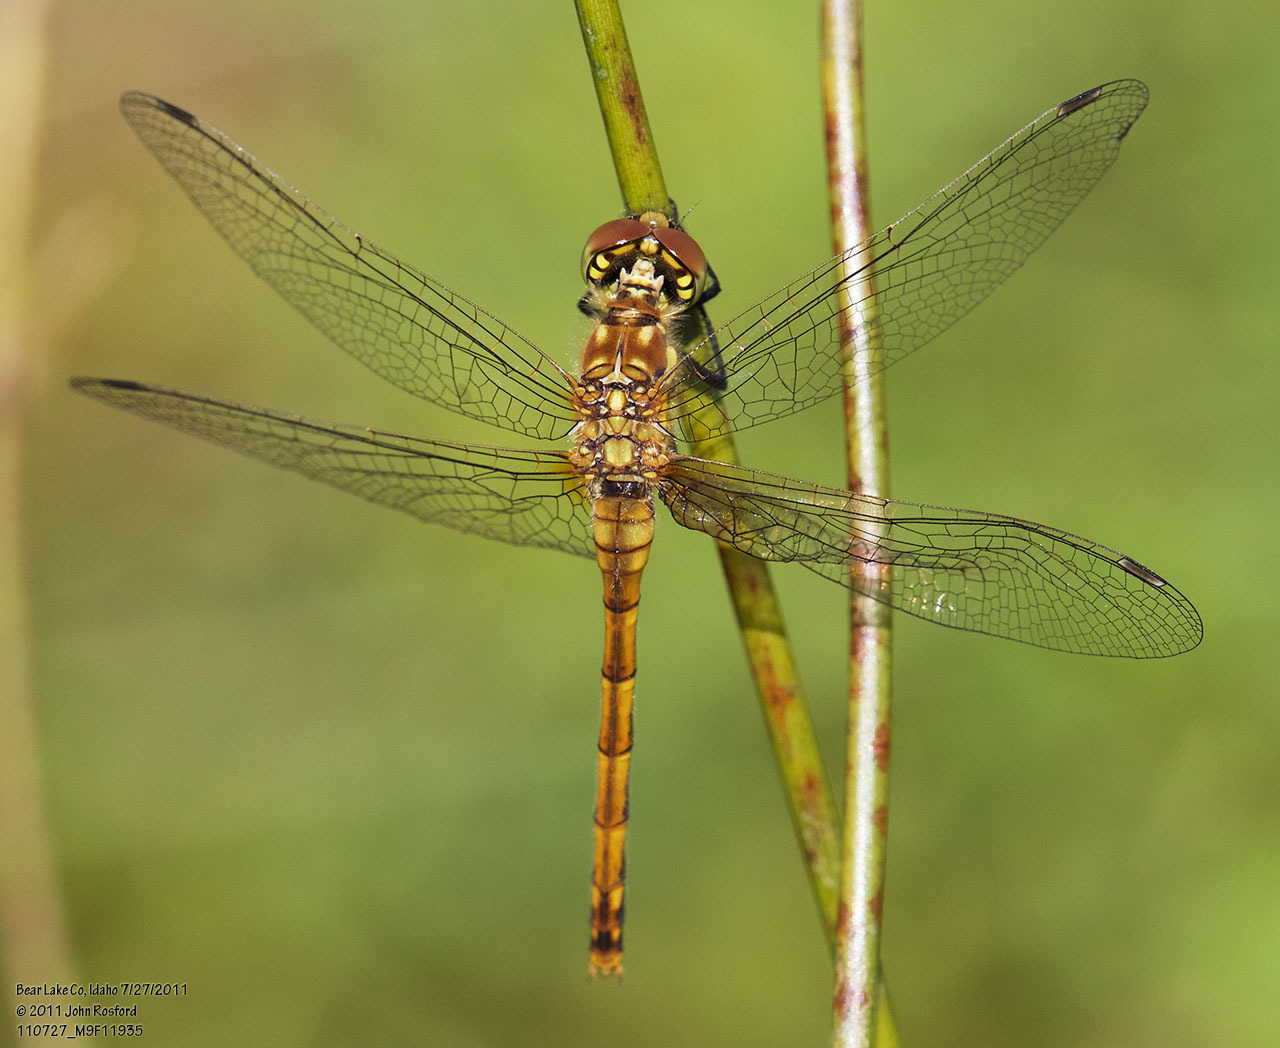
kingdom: Animalia
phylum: Arthropoda
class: Insecta
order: Odonata
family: Libellulidae
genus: Sympetrum
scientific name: Sympetrum danae
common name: Black darter
